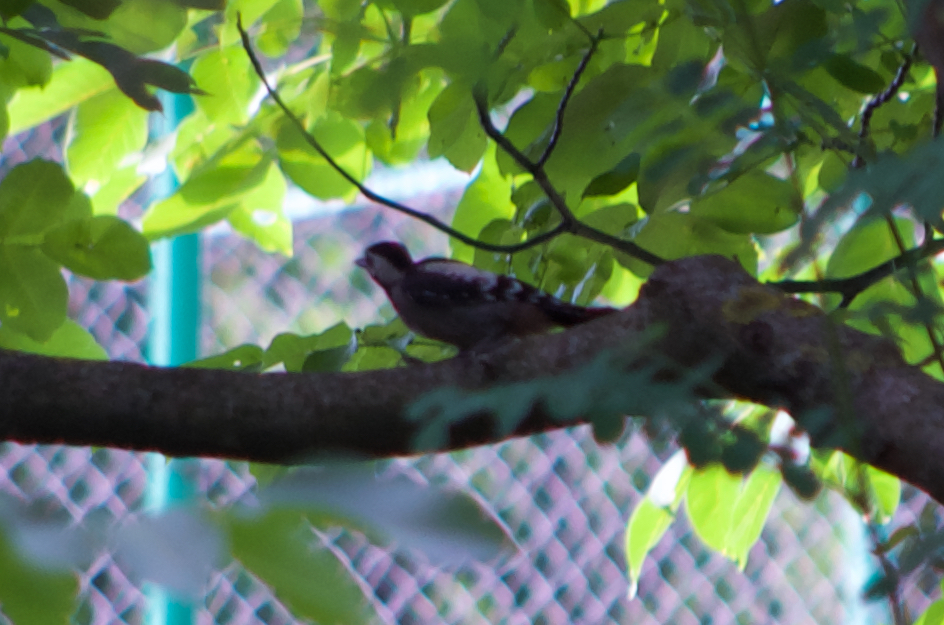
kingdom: Animalia
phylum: Chordata
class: Aves
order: Piciformes
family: Picidae
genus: Dendrocopos
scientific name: Dendrocopos syriacus
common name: Syrian woodpecker
